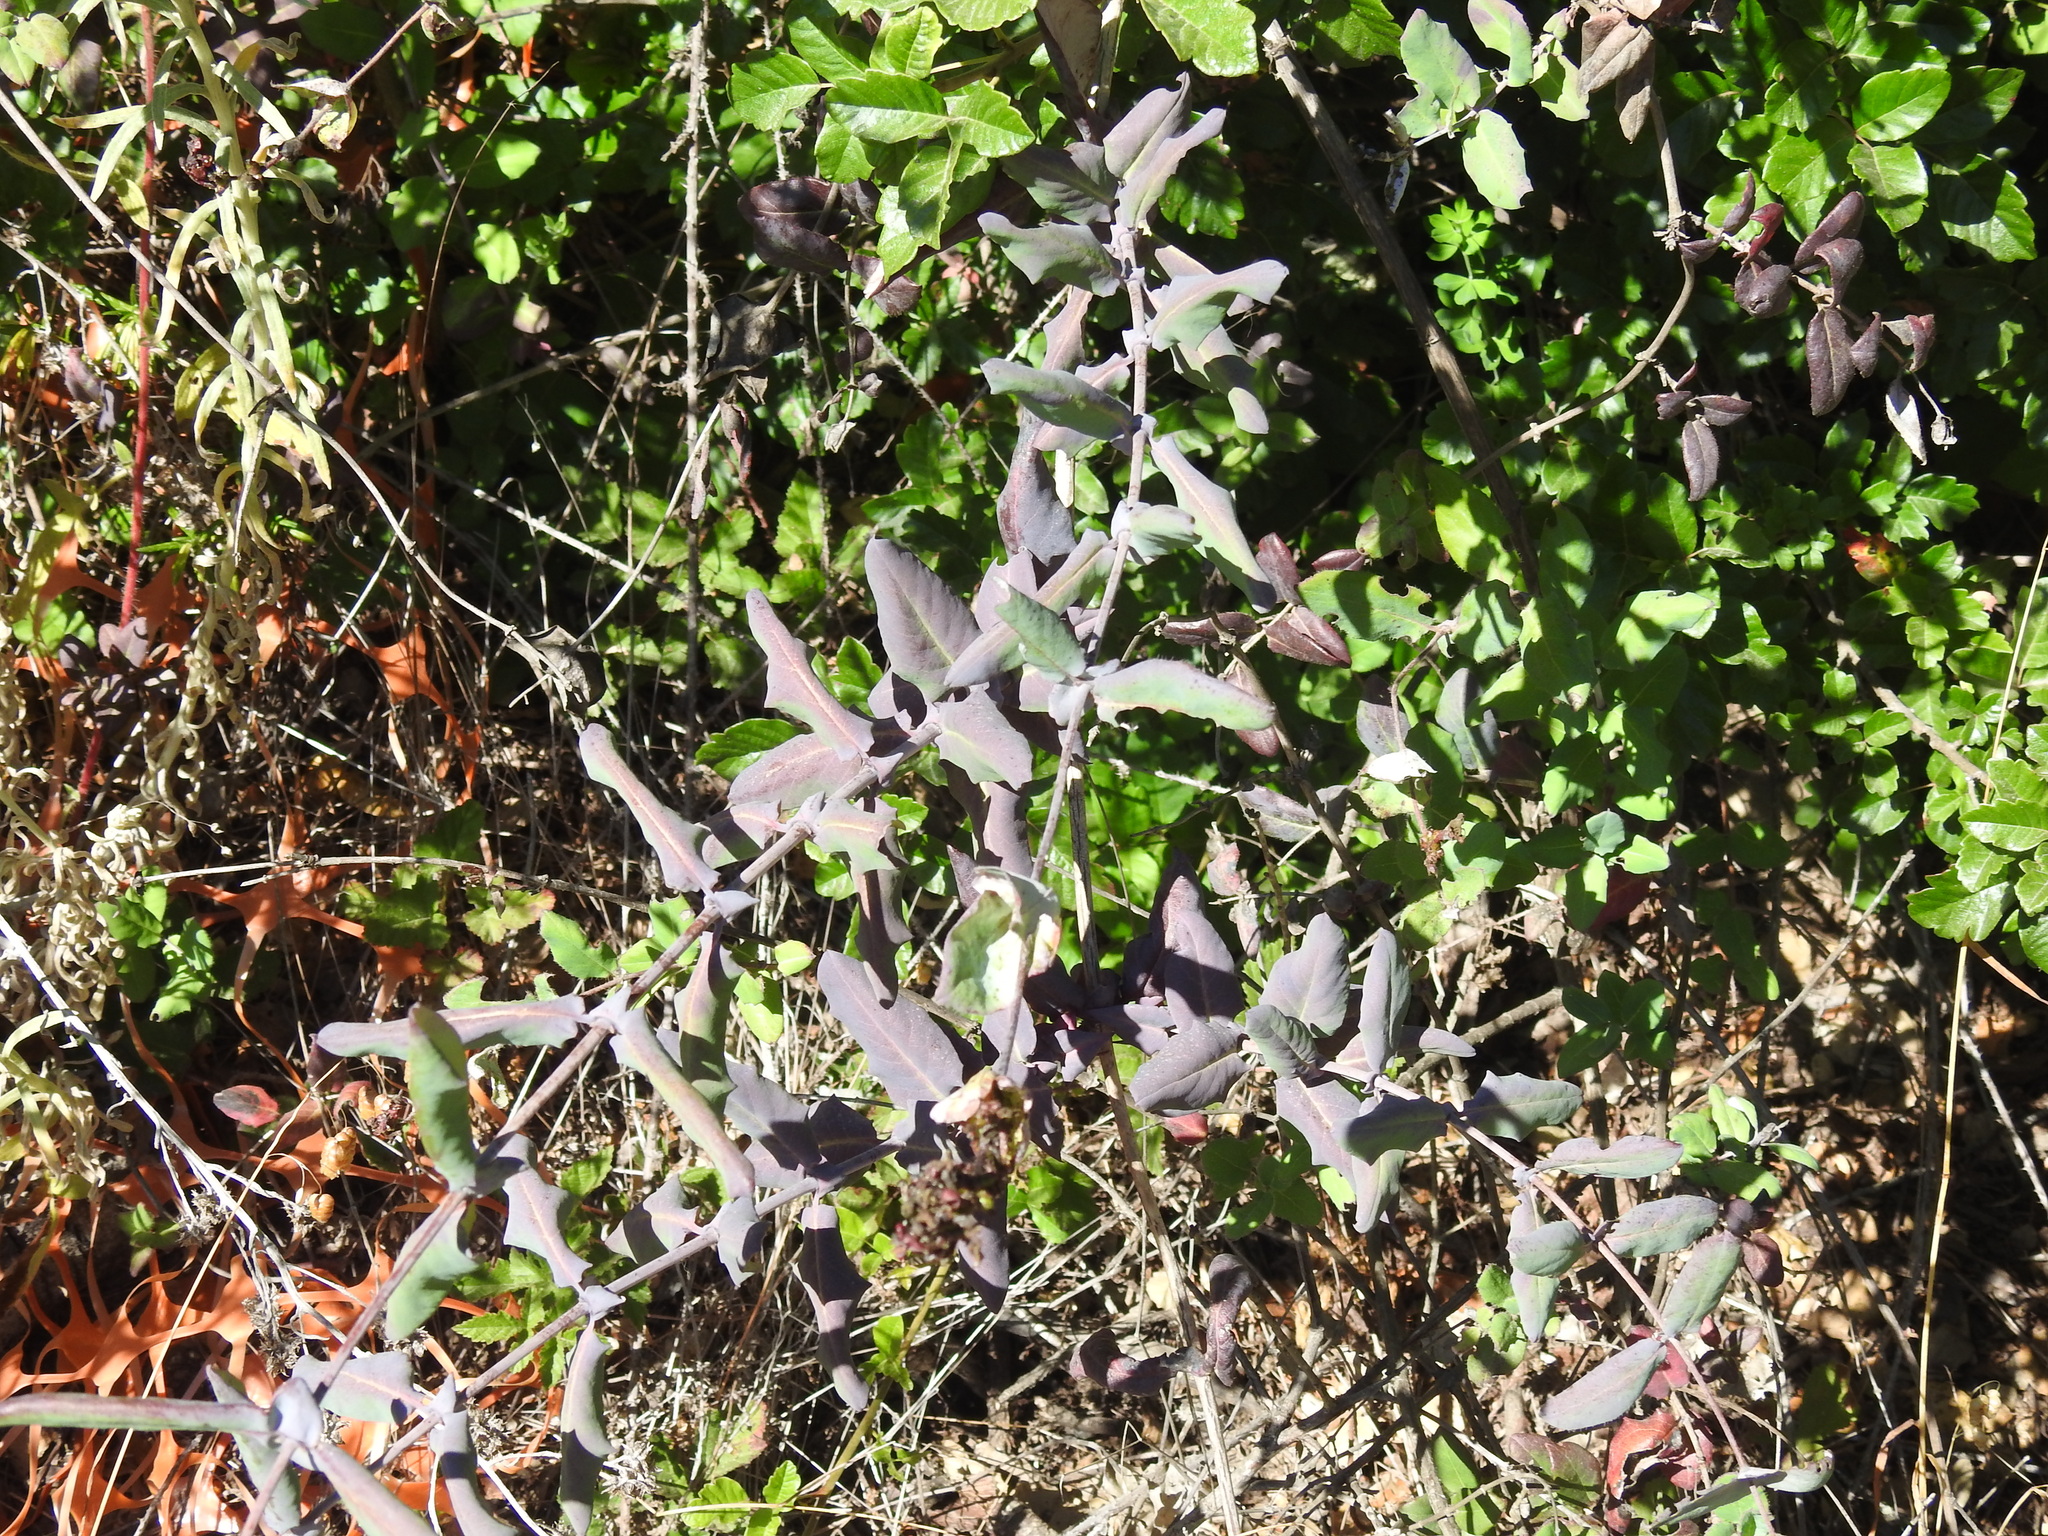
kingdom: Plantae
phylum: Tracheophyta
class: Magnoliopsida
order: Dipsacales
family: Caprifoliaceae
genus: Lonicera
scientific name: Lonicera hispidula
